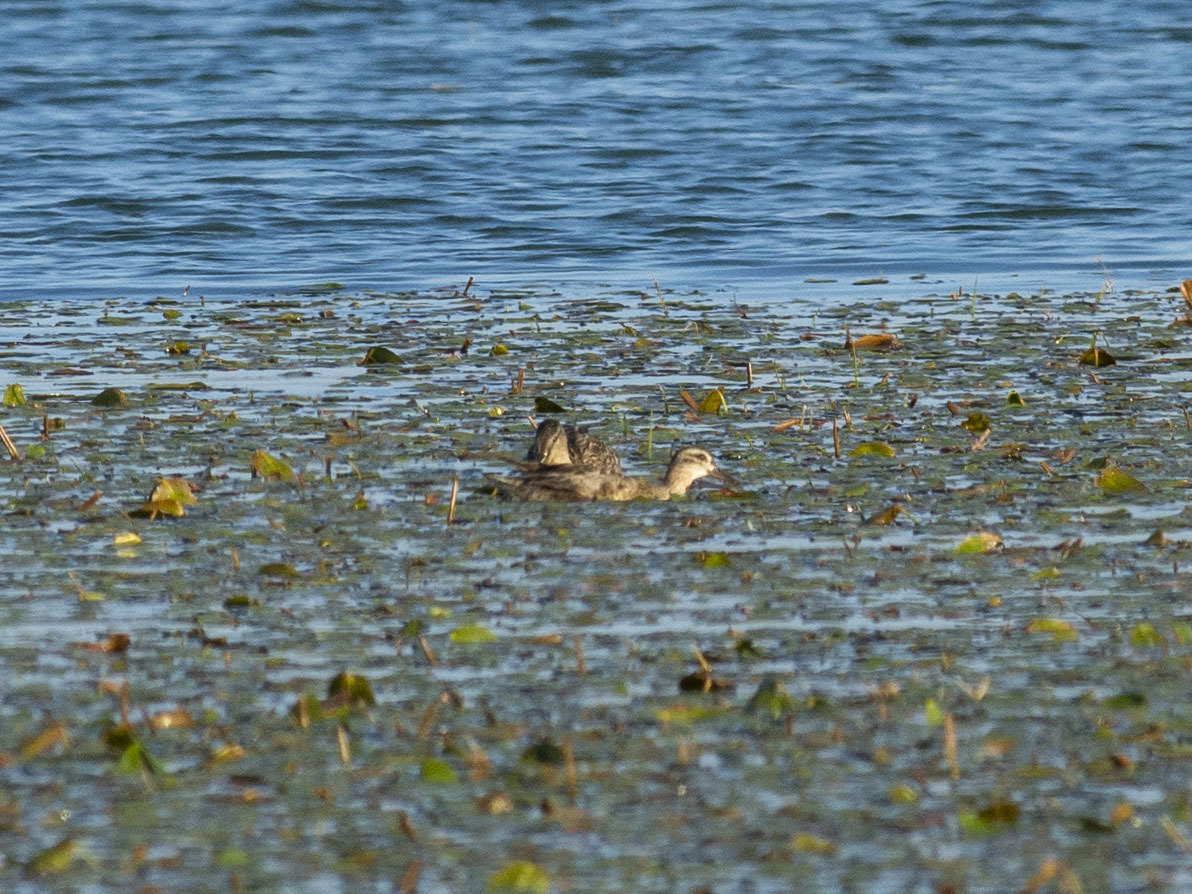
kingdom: Animalia
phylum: Chordata
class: Aves
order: Anseriformes
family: Anatidae
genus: Spatula
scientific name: Spatula querquedula
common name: Garganey
